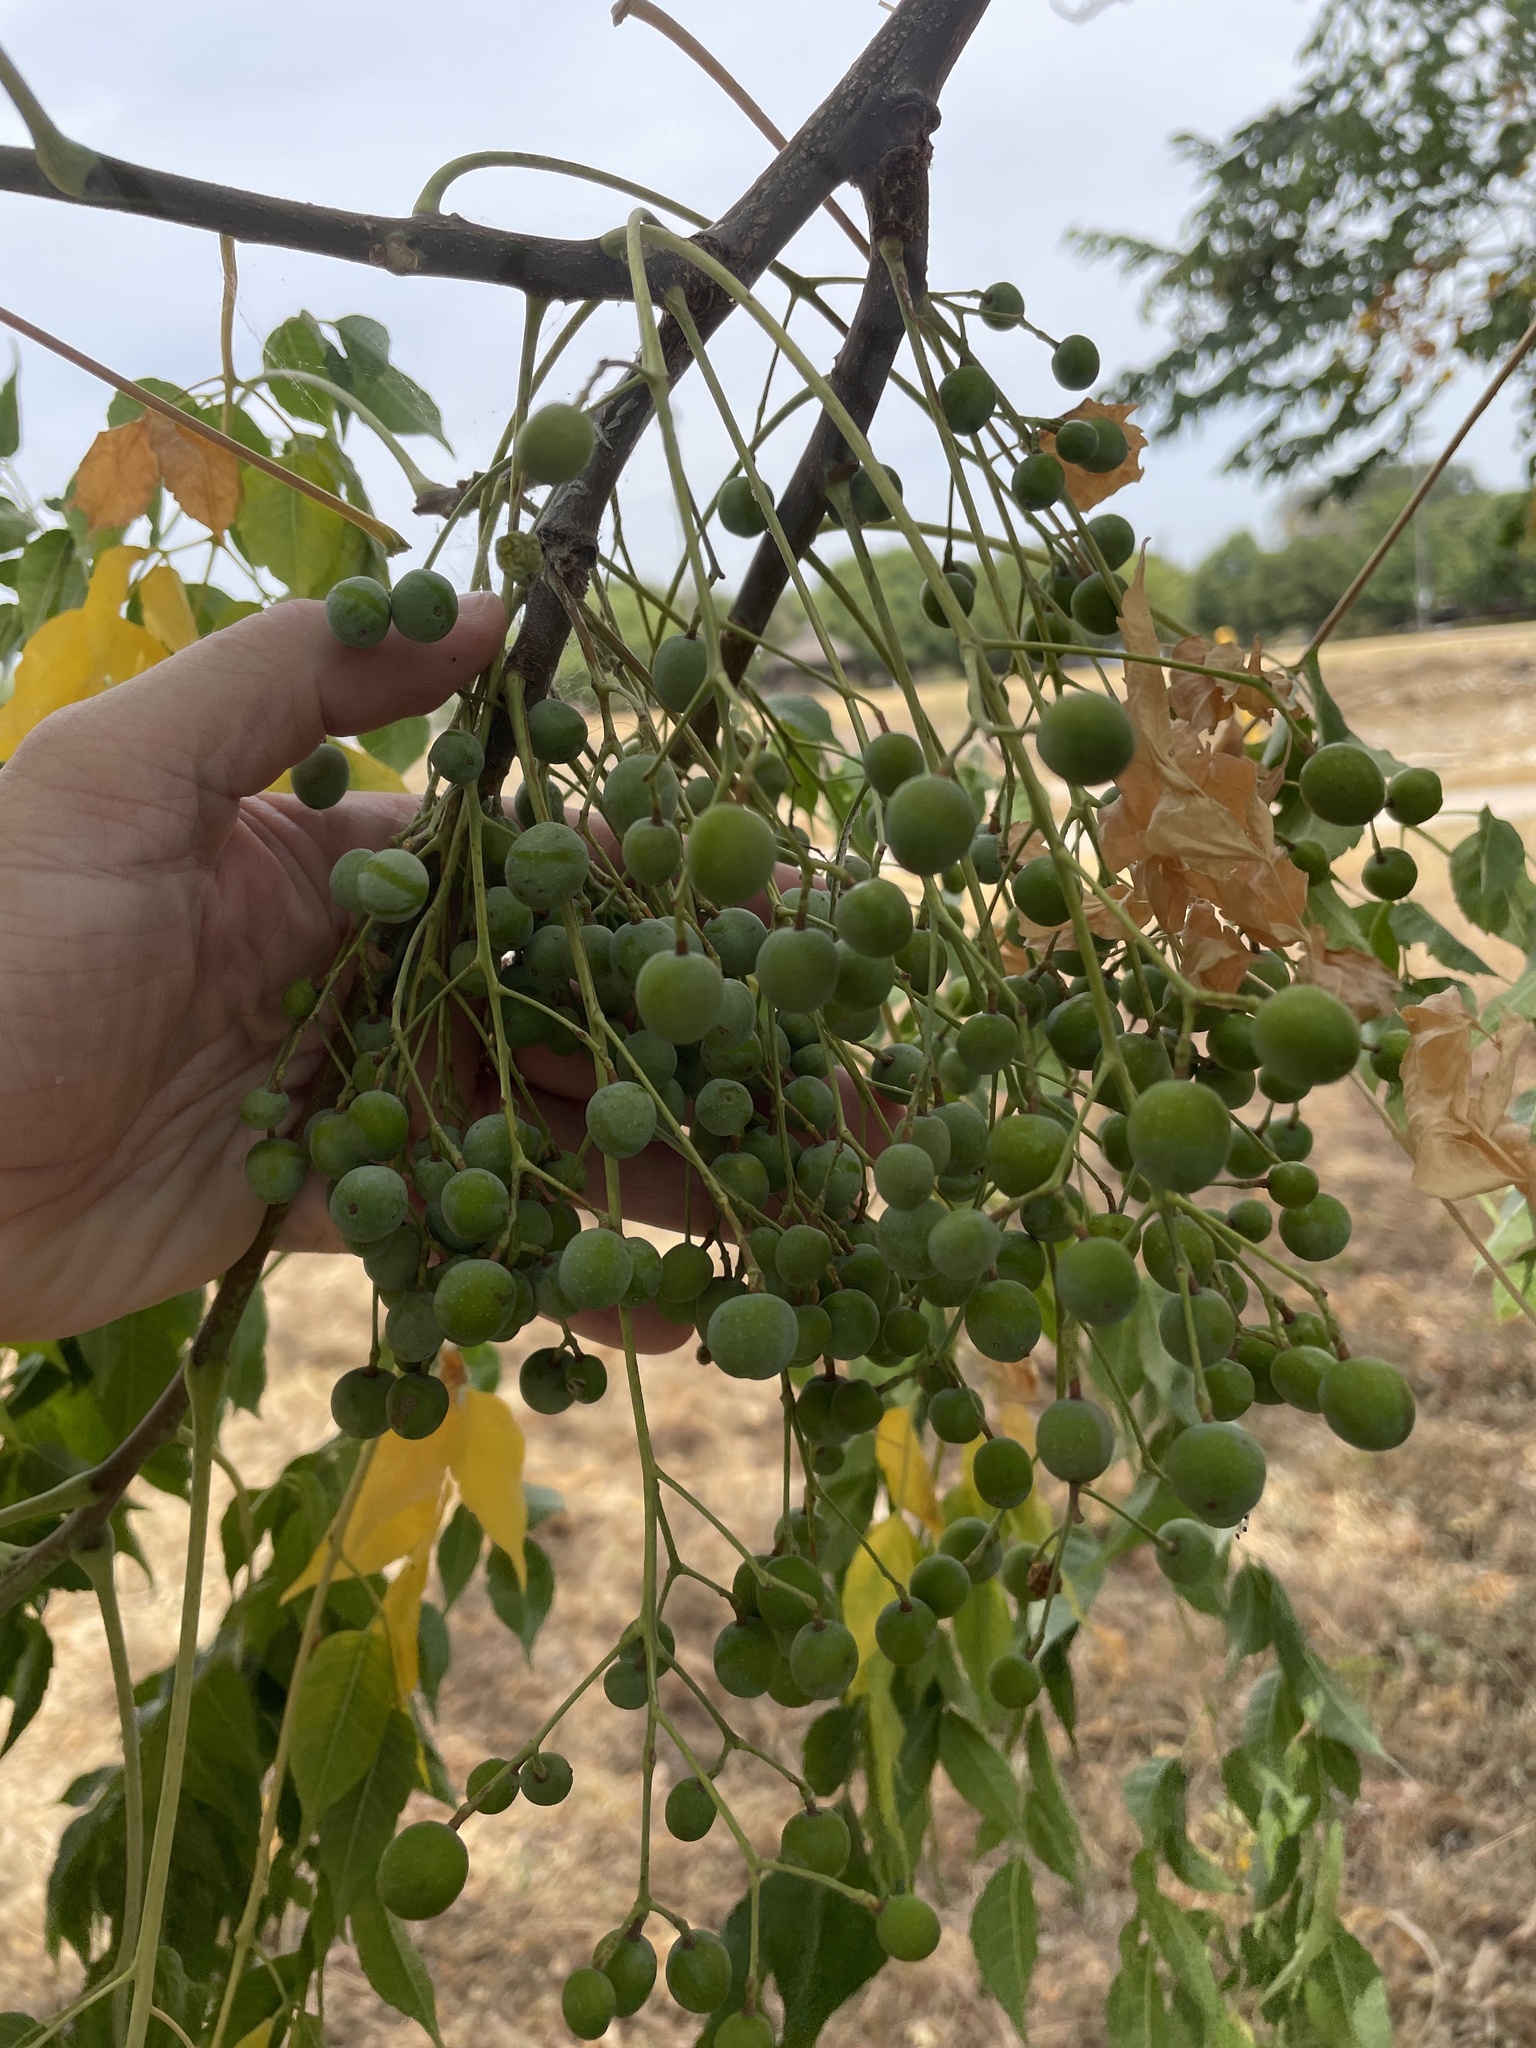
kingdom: Plantae
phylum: Tracheophyta
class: Magnoliopsida
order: Sapindales
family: Meliaceae
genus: Melia
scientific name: Melia azedarach
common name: Chinaberrytree
